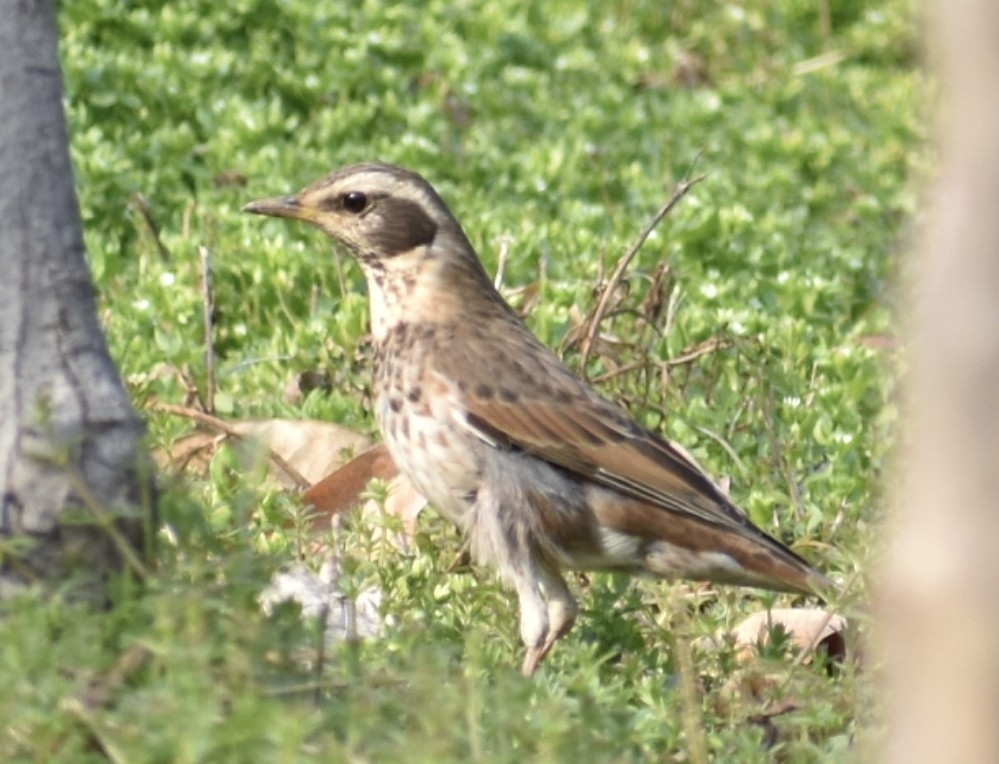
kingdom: Animalia
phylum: Chordata
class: Aves
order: Passeriformes
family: Turdidae
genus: Turdus
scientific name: Turdus eunomus
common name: Dusky thrush
